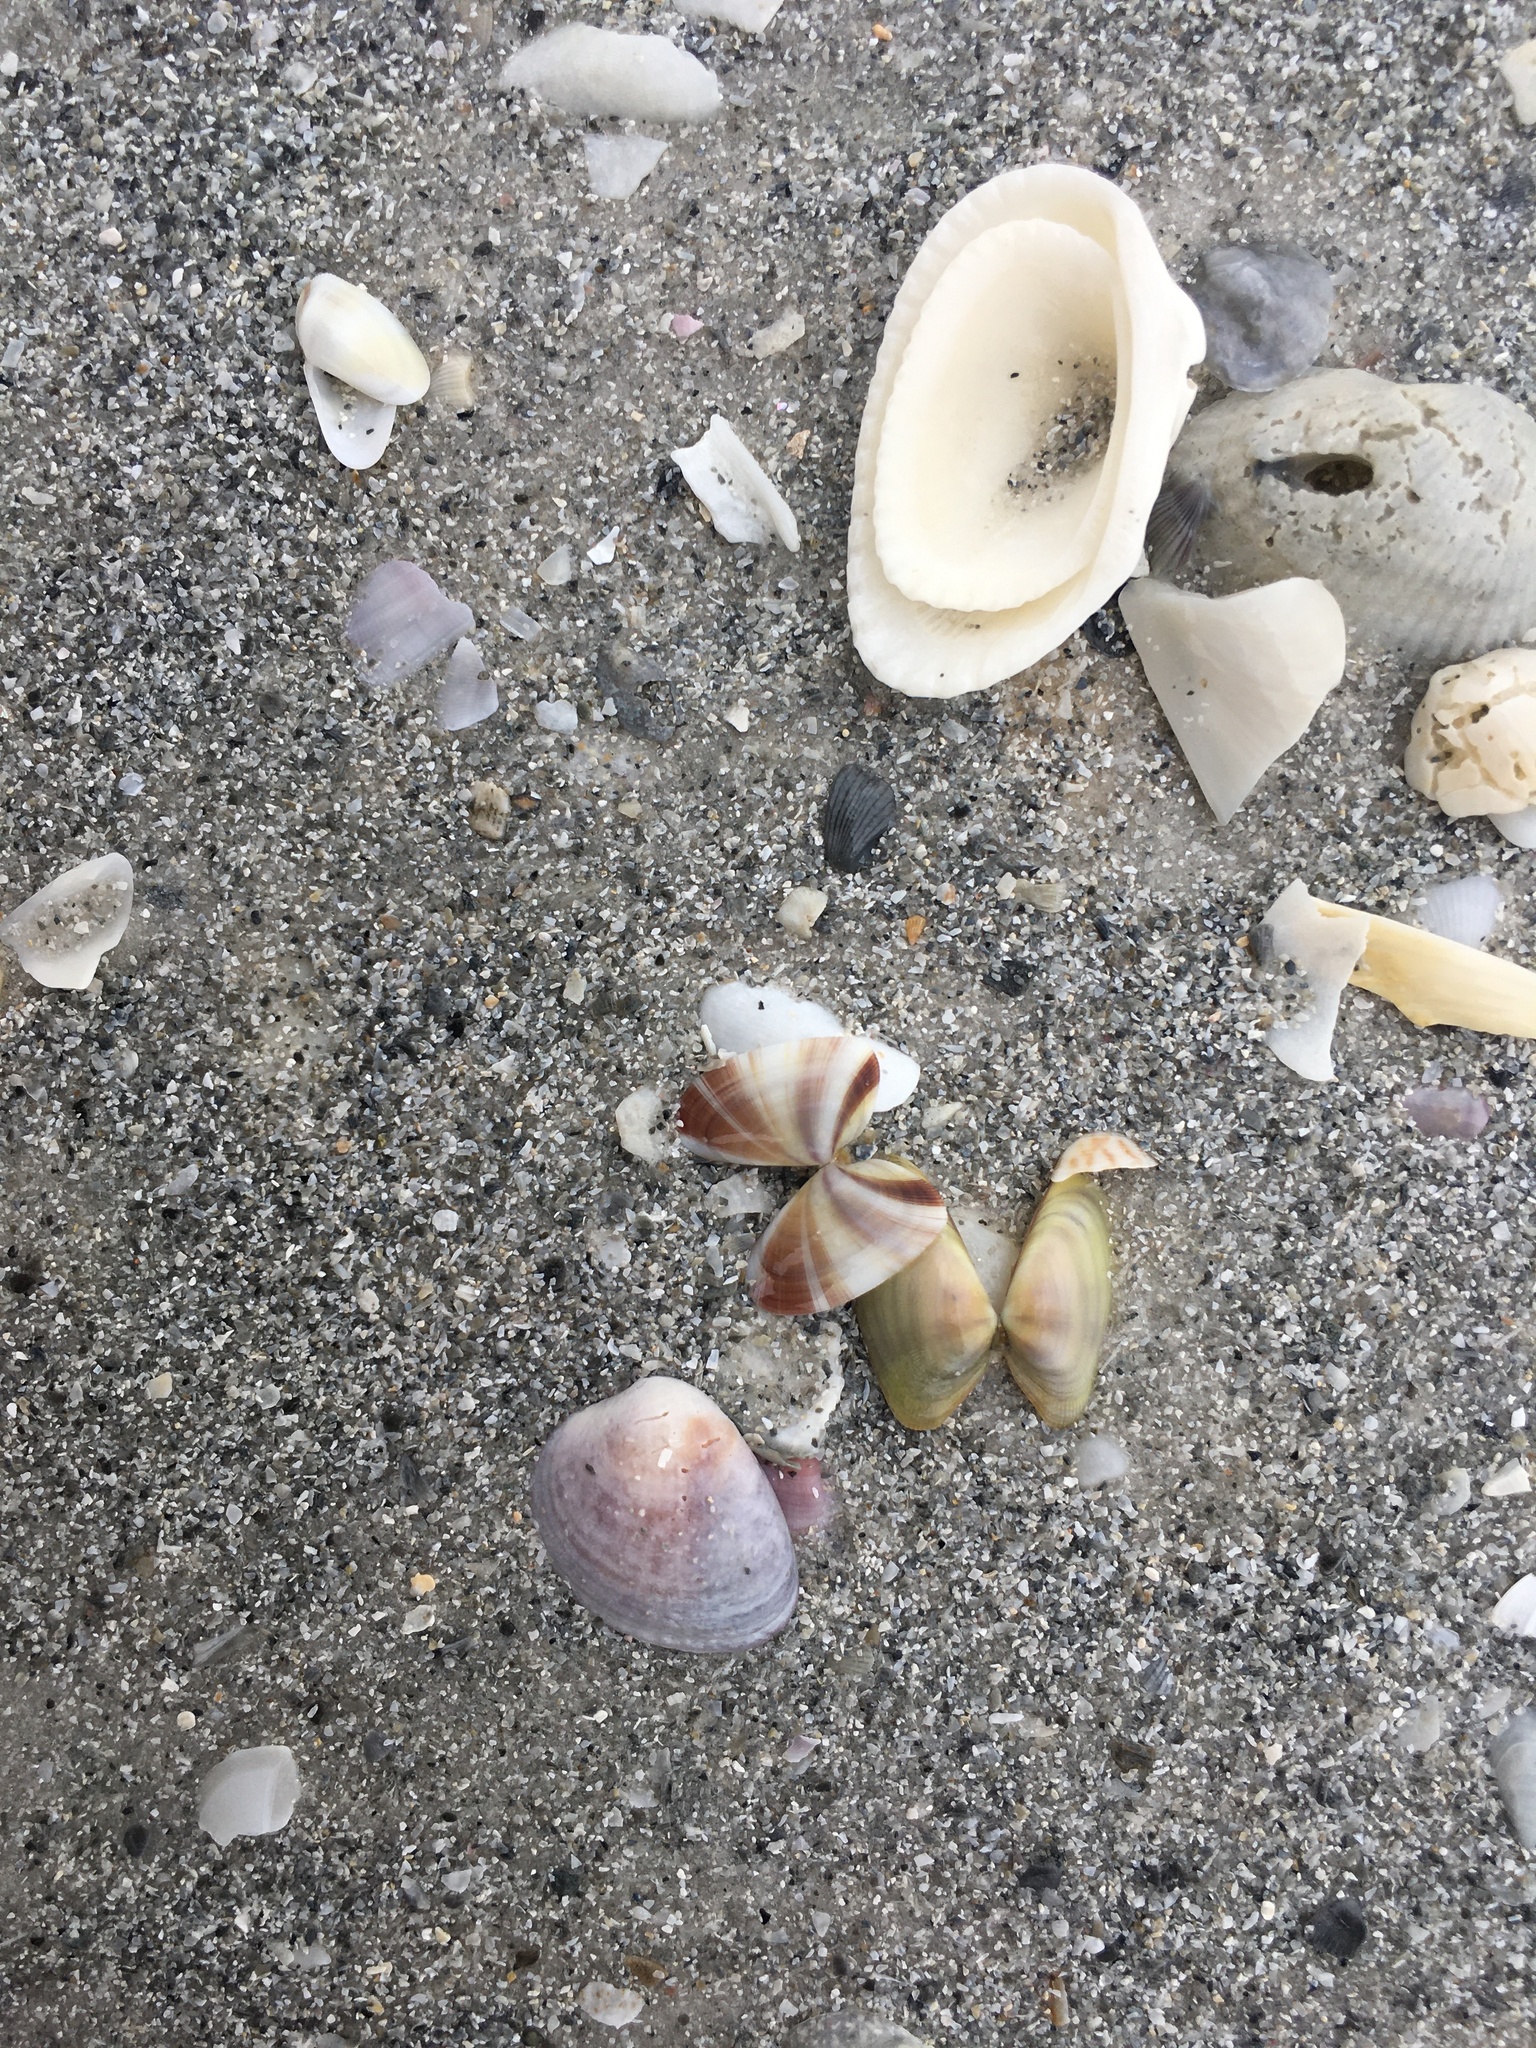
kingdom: Animalia
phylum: Mollusca
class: Bivalvia
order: Cardiida
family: Donacidae
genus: Donax
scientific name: Donax variabilis
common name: Butterfly shell
